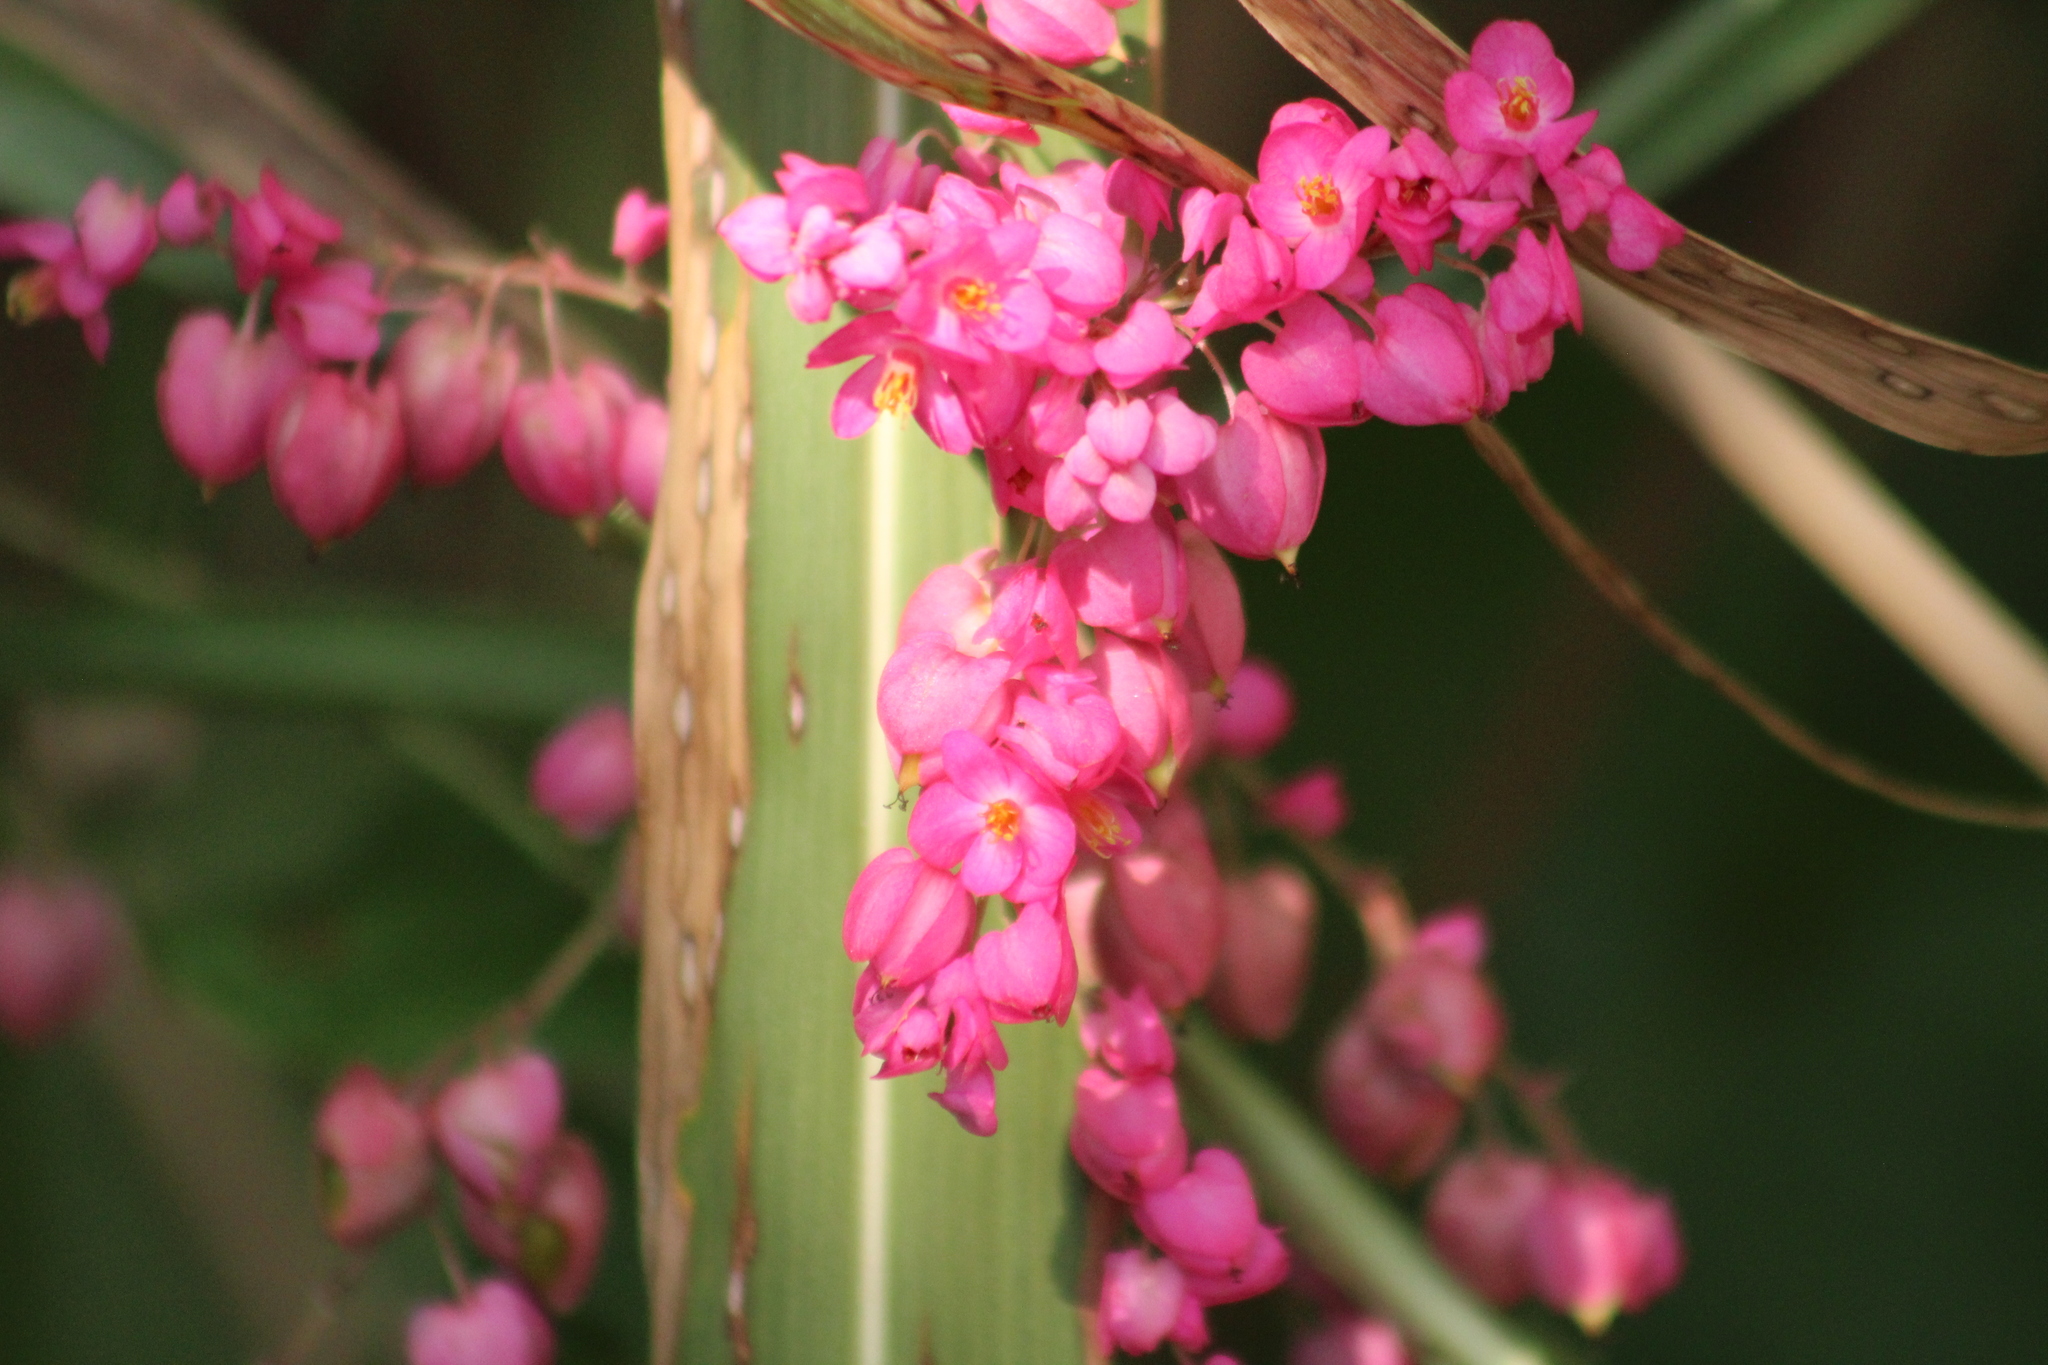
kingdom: Plantae
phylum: Tracheophyta
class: Magnoliopsida
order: Caryophyllales
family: Polygonaceae
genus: Antigonon
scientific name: Antigonon leptopus
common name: Coral vine
